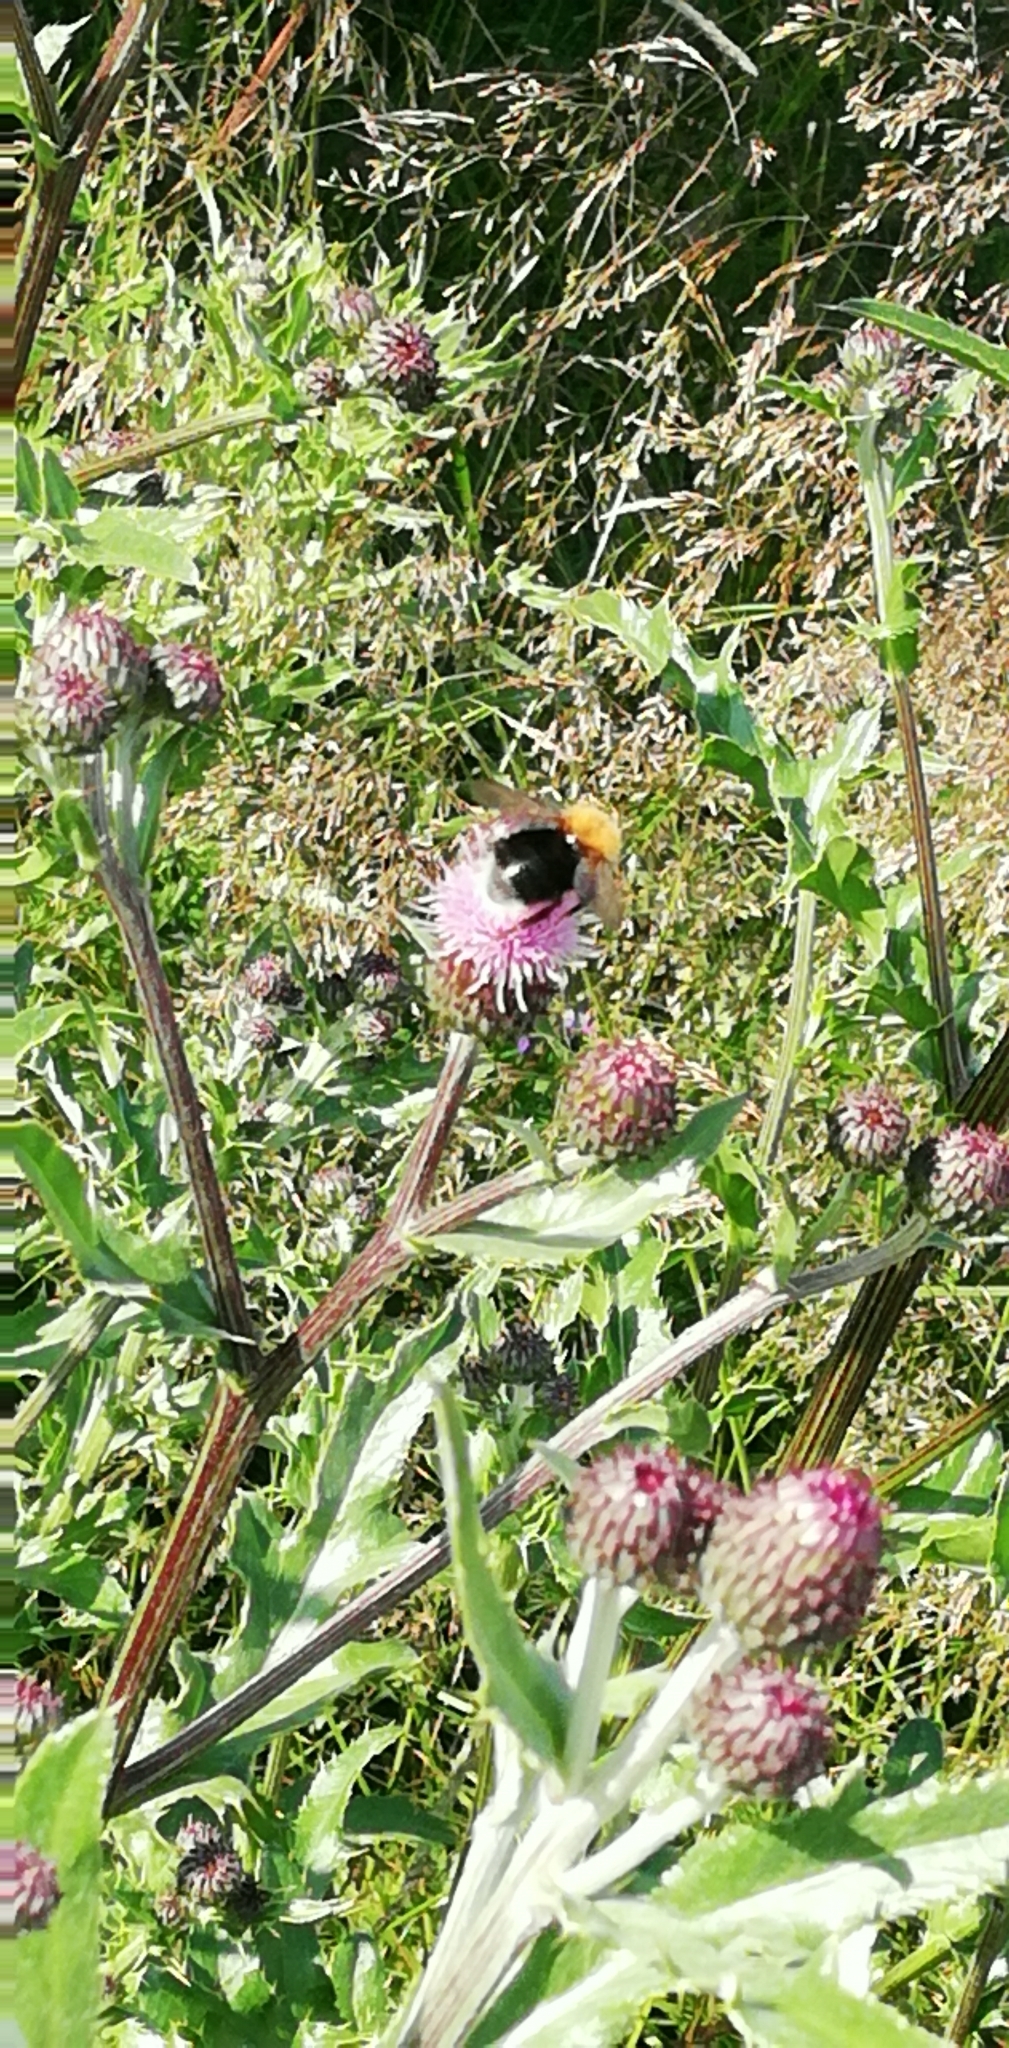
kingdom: Animalia
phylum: Arthropoda
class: Insecta
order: Hymenoptera
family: Apidae
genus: Bombus
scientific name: Bombus hypnorum
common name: New garden bumblebee
